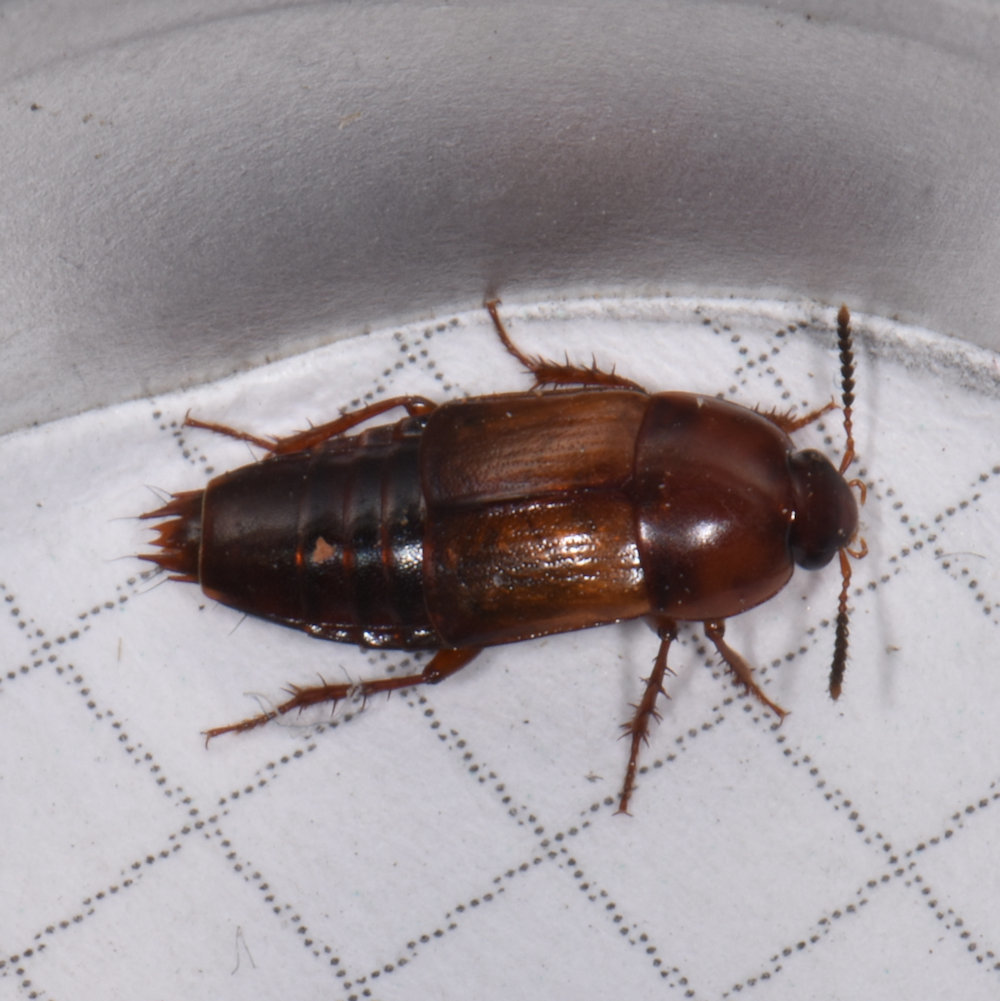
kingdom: Animalia
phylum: Arthropoda
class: Insecta
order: Coleoptera
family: Staphylinidae
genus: Tachinus
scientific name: Tachinus fimbriatus
